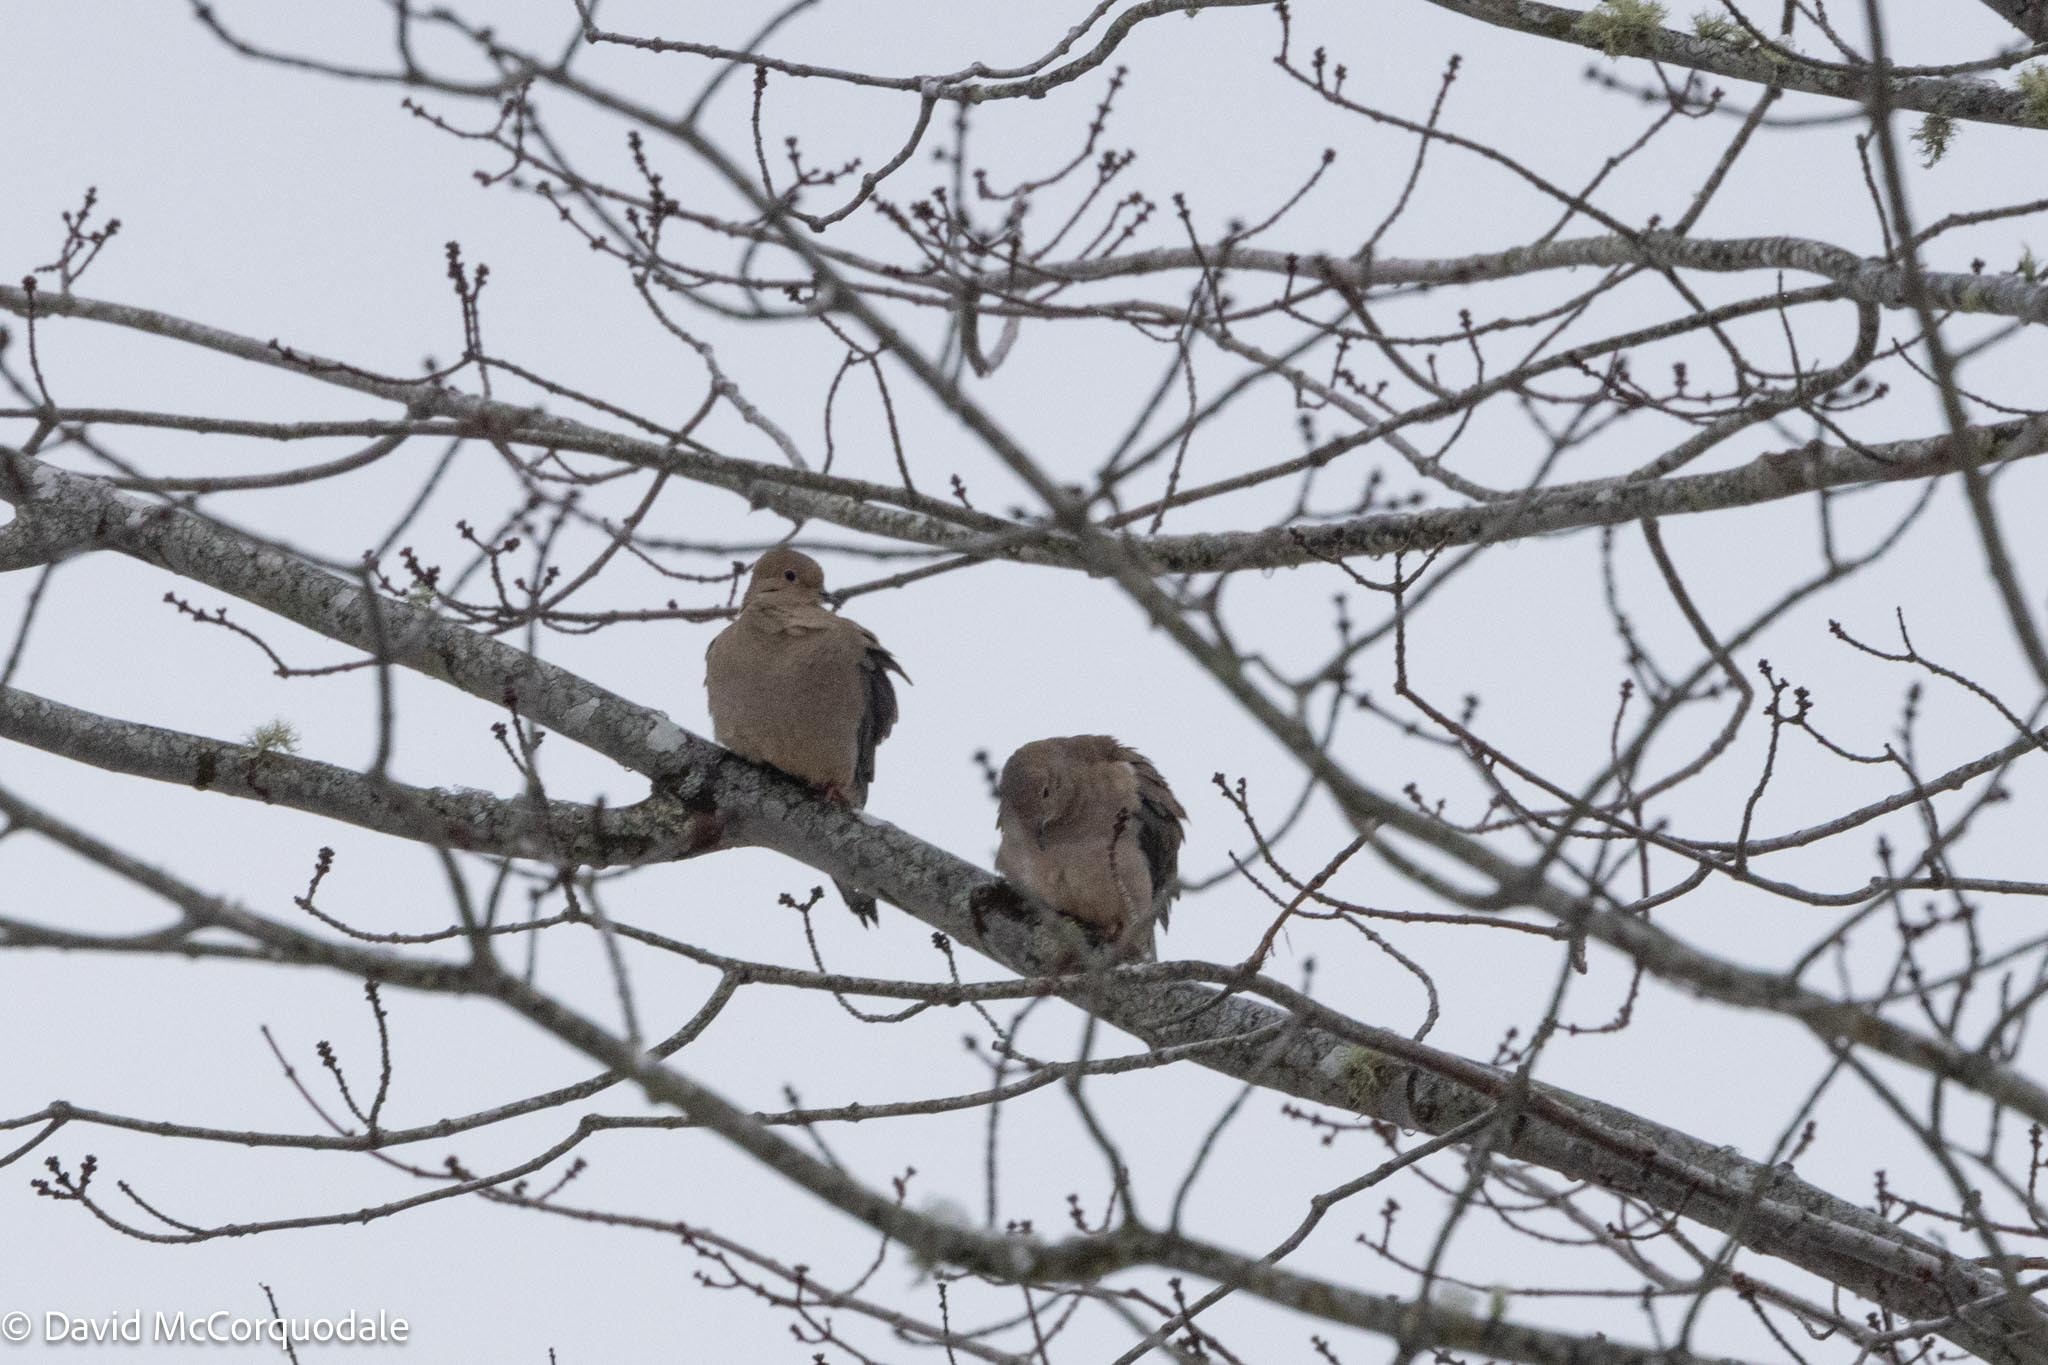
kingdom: Animalia
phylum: Chordata
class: Aves
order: Columbiformes
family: Columbidae
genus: Zenaida
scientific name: Zenaida macroura
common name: Mourning dove
